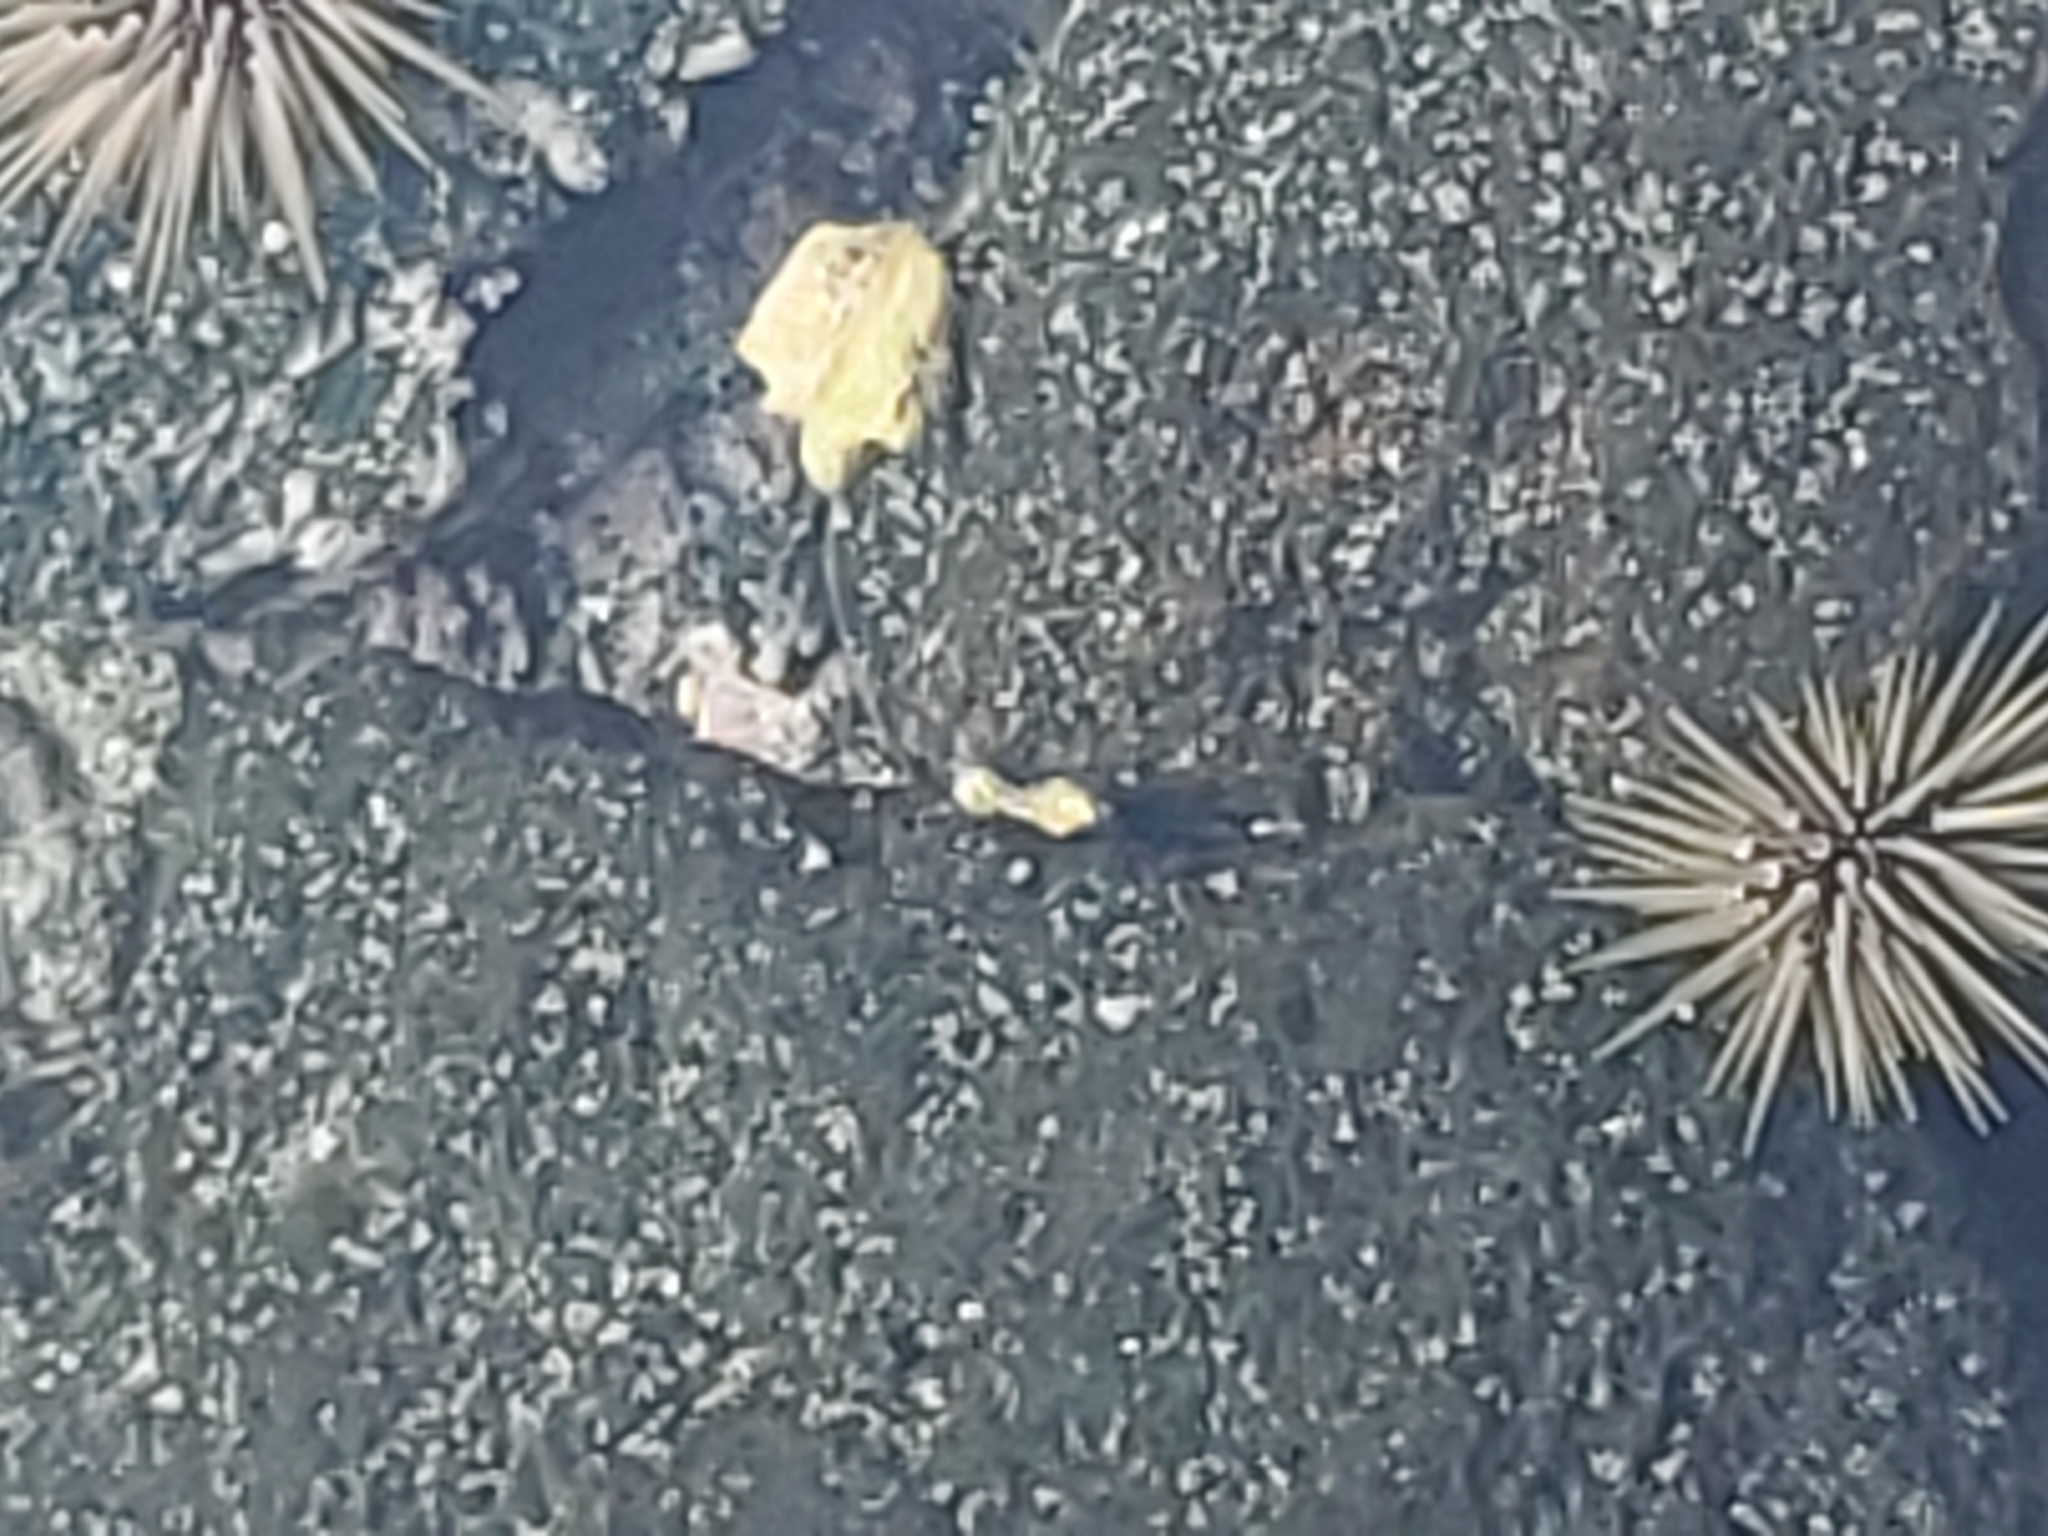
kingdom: Animalia
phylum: Echinodermata
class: Echinoidea
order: Camarodonta
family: Echinometridae
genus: Echinometra
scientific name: Echinometra mathaei
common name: Rock-boring urchin
